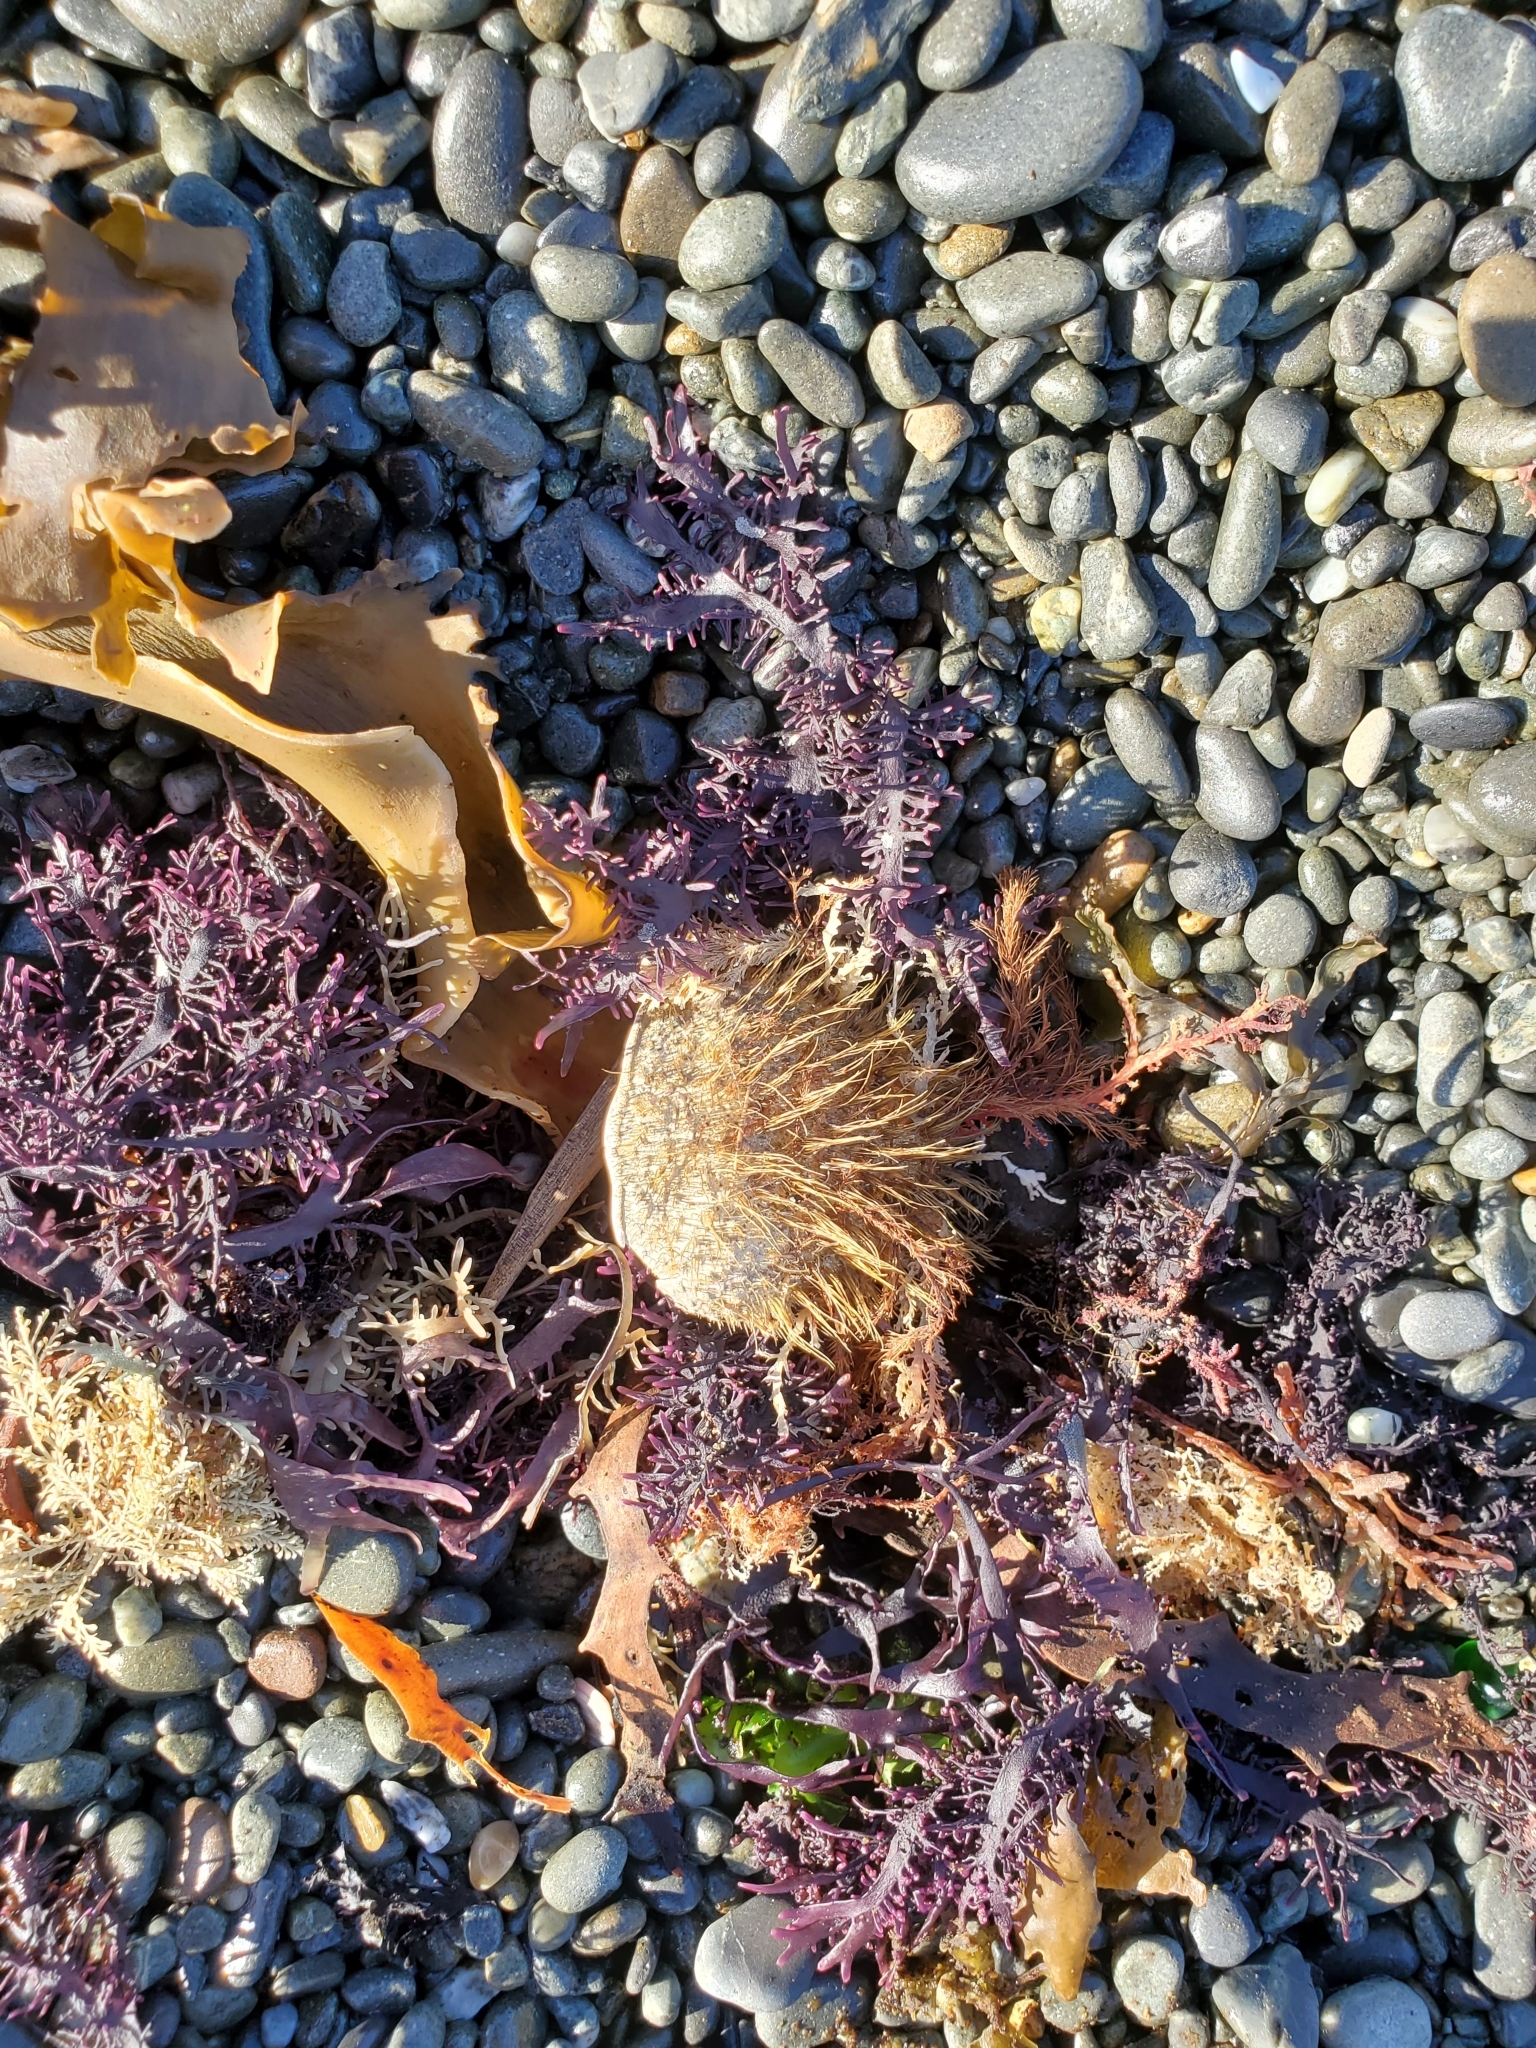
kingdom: Animalia
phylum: Arthropoda
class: Malacostraca
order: Decapoda
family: Majidae
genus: Notomithrax
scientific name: Notomithrax ursus
